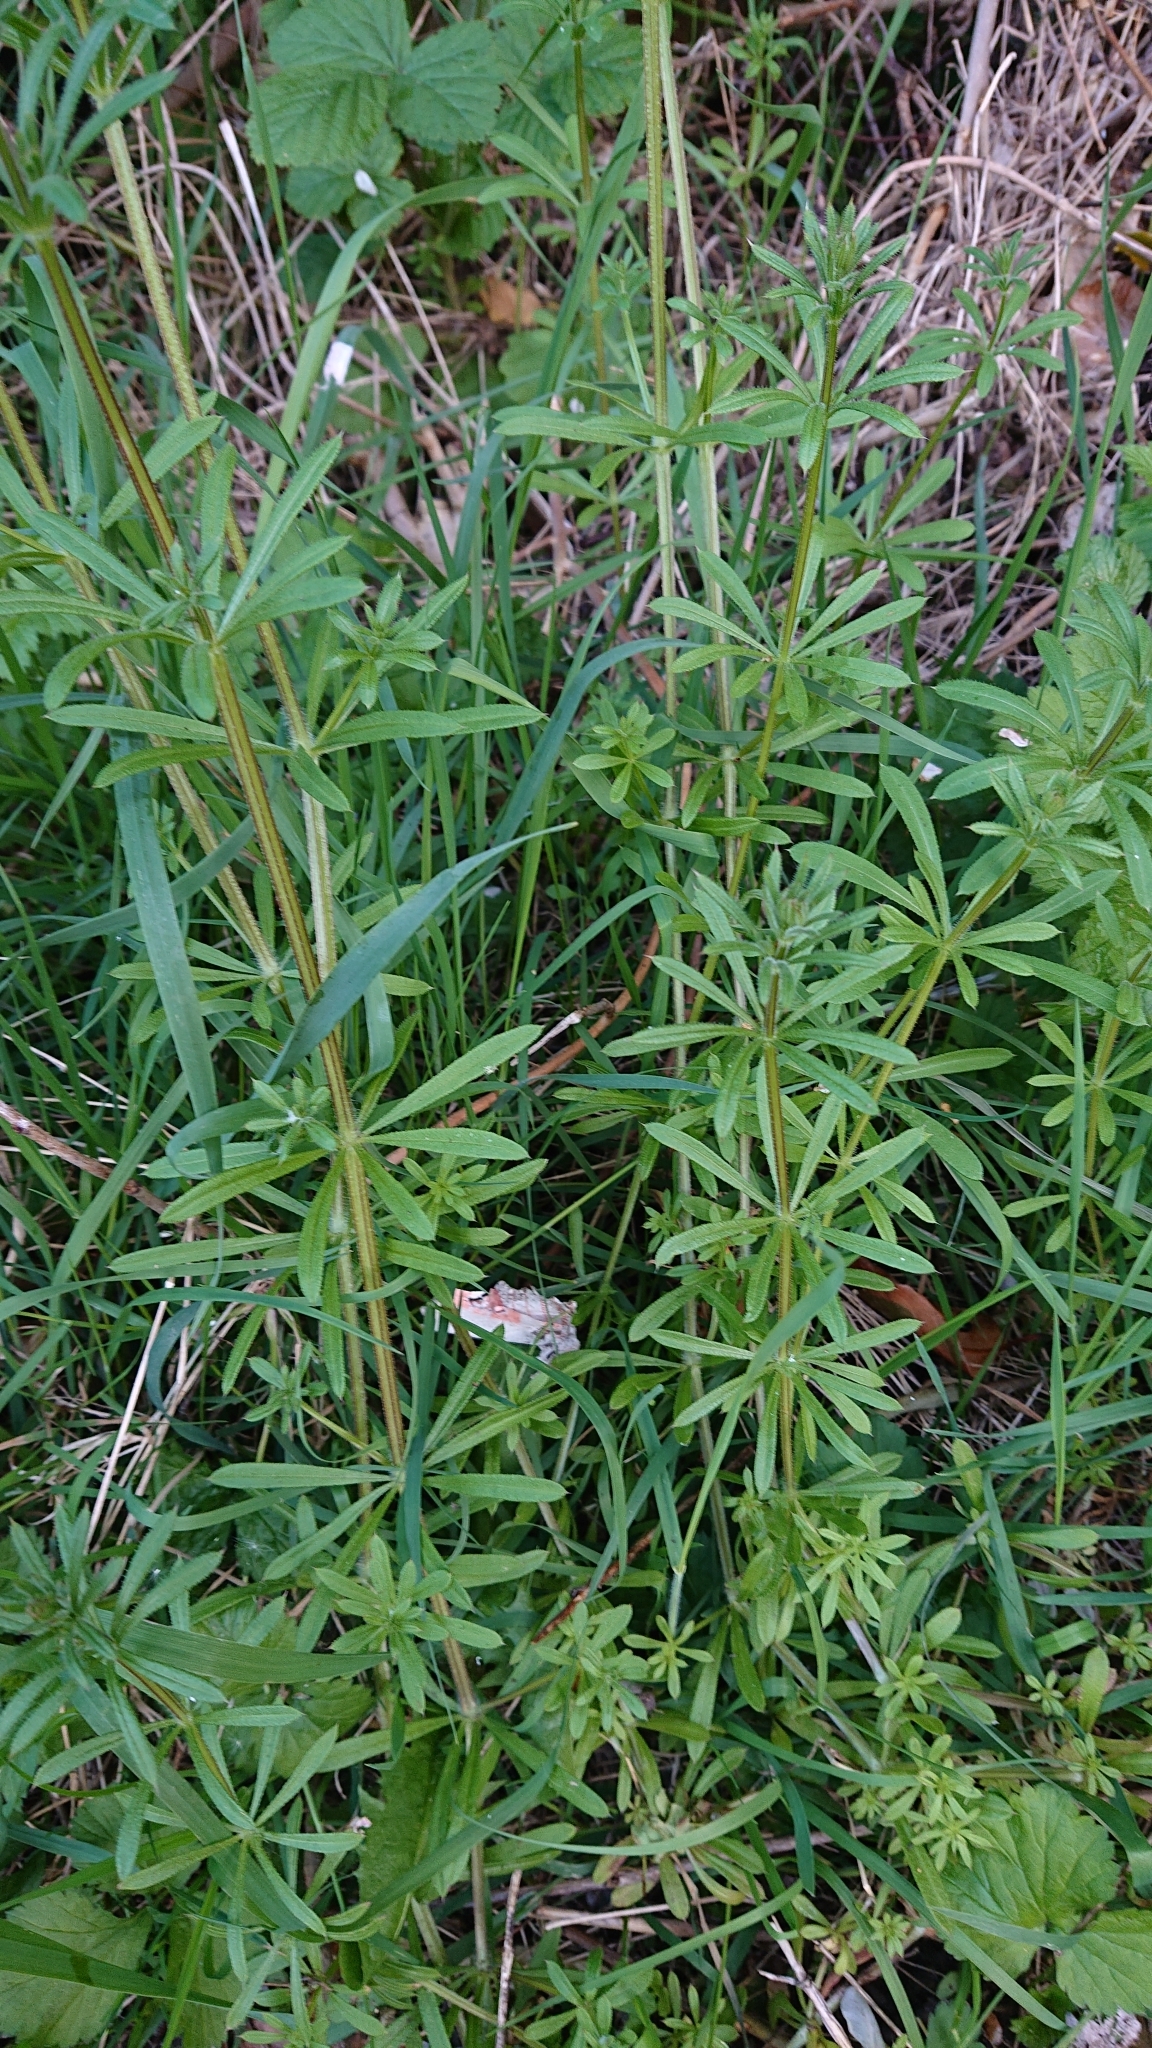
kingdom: Plantae
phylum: Tracheophyta
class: Magnoliopsida
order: Gentianales
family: Rubiaceae
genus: Galium
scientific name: Galium aparine
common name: Cleavers
